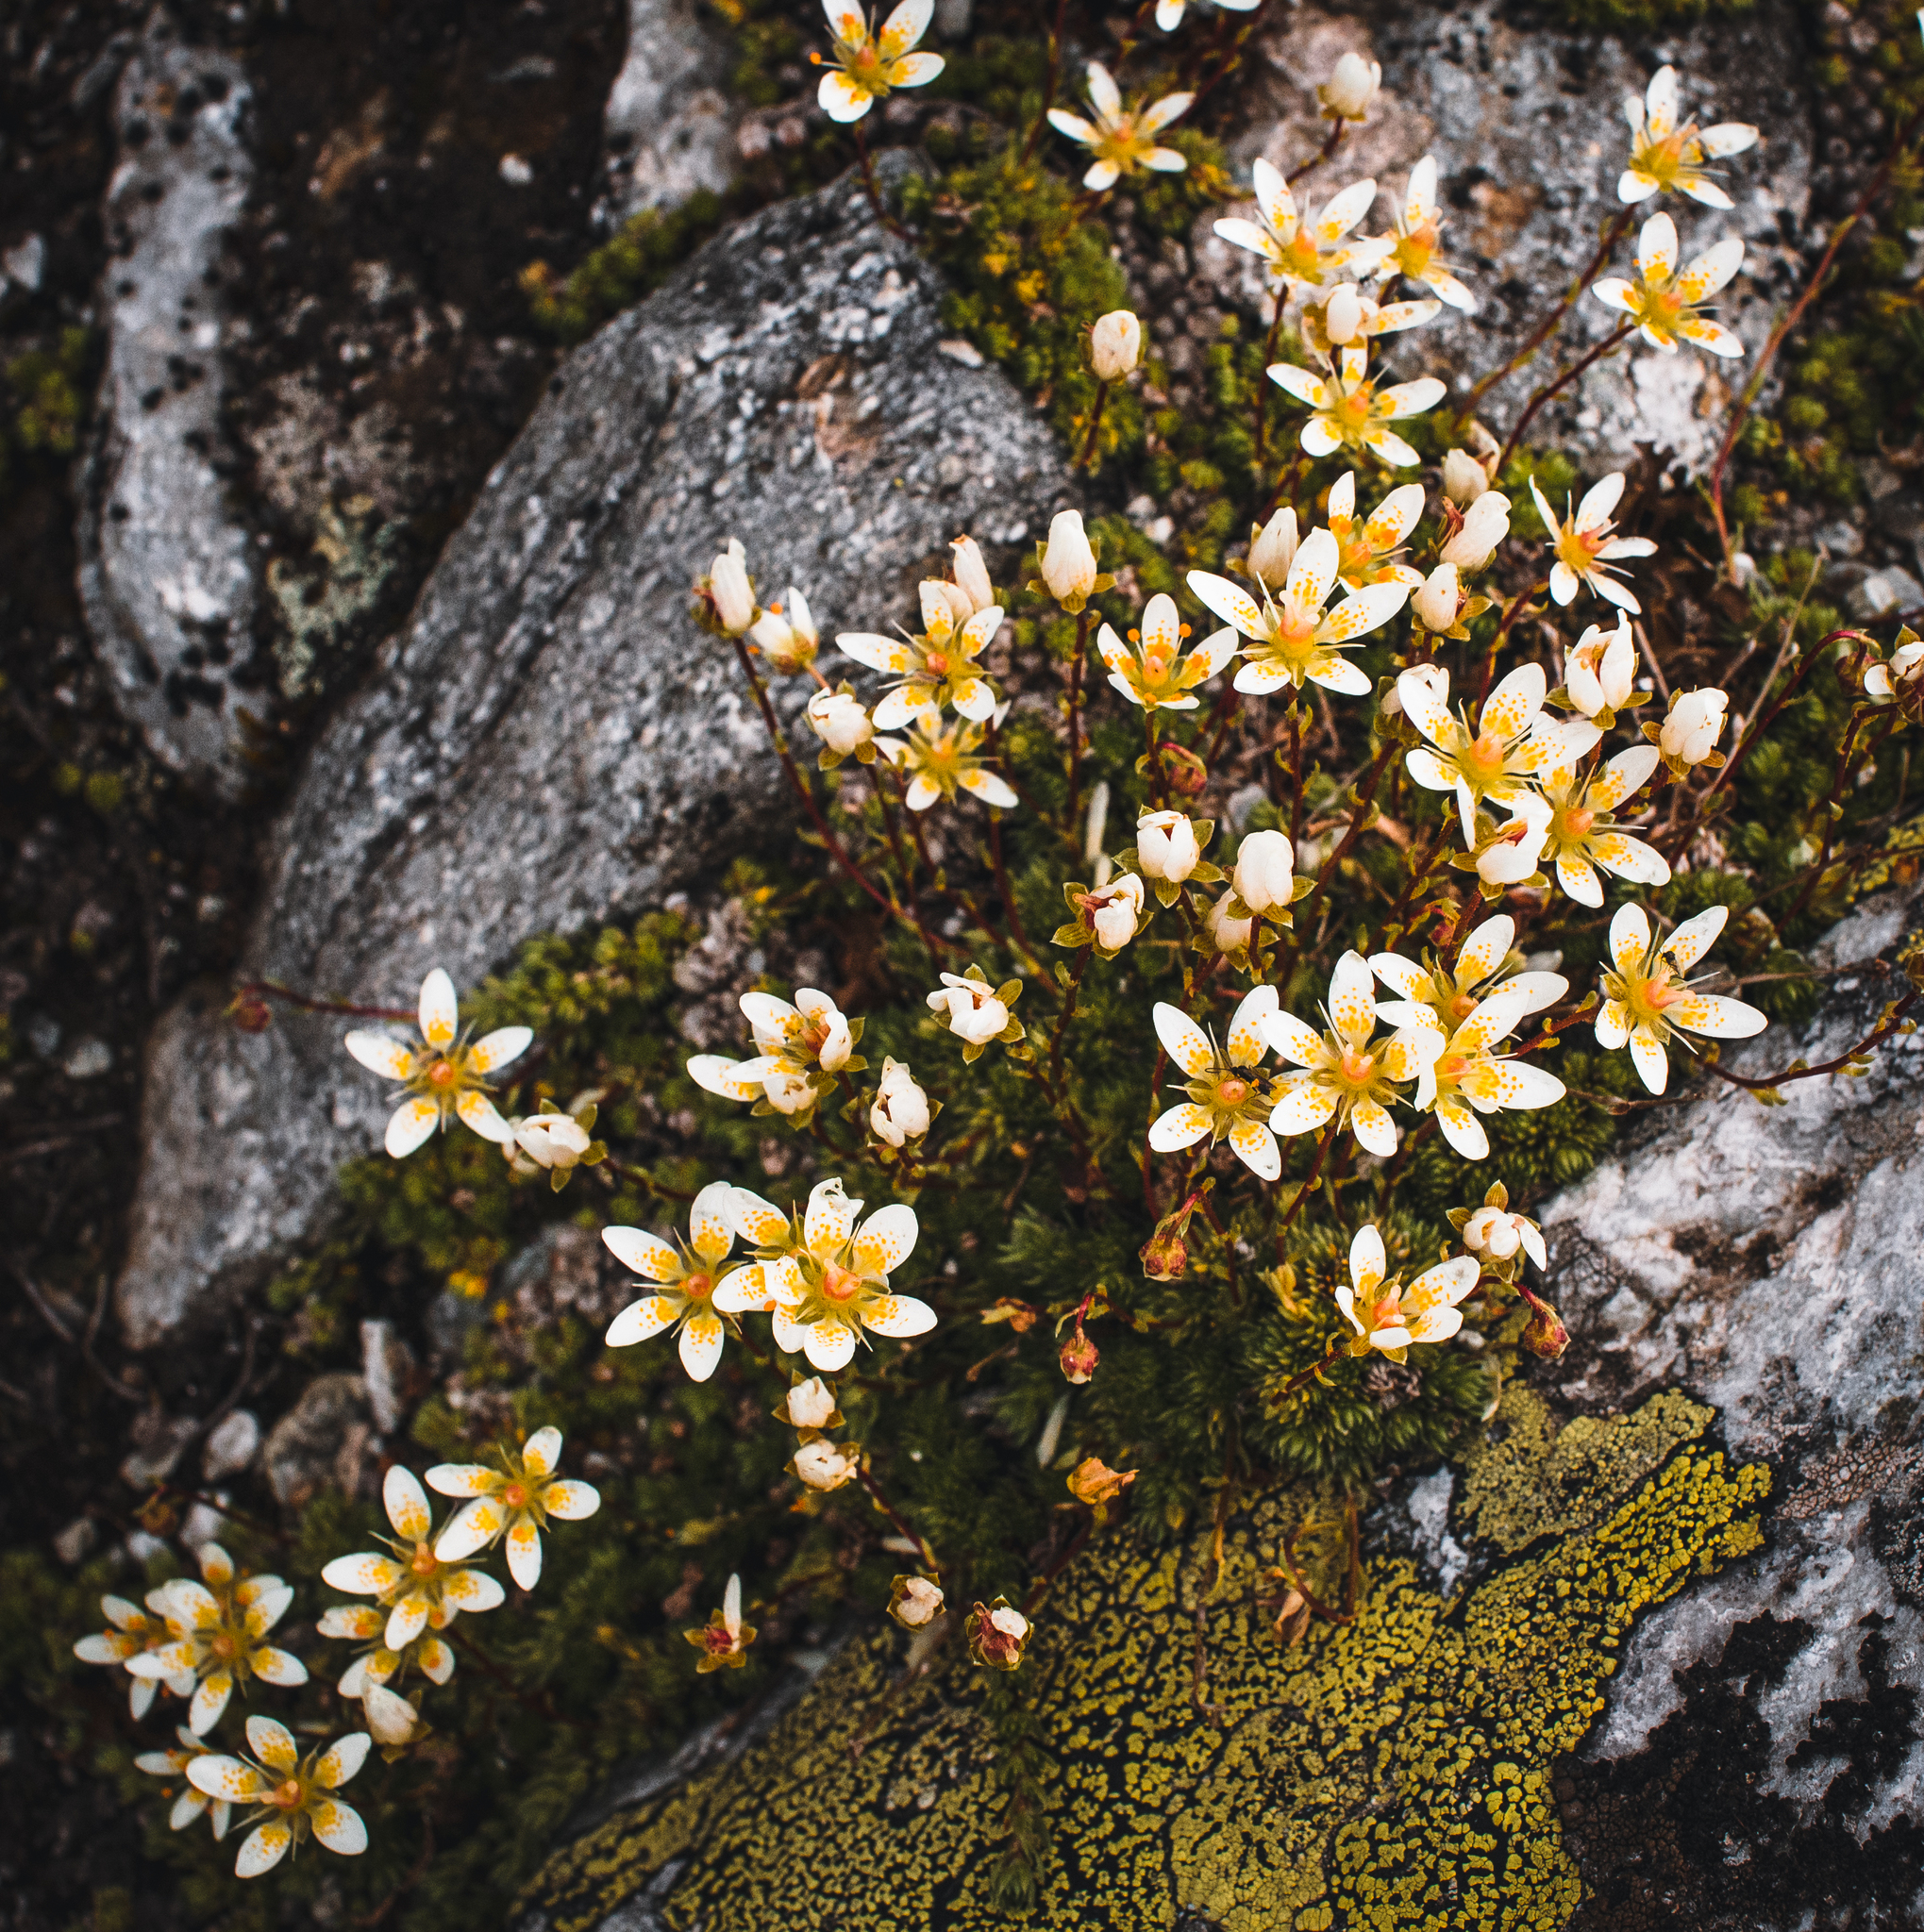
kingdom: Plantae
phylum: Tracheophyta
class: Magnoliopsida
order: Saxifragales
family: Saxifragaceae
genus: Saxifraga
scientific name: Saxifraga bryoides
